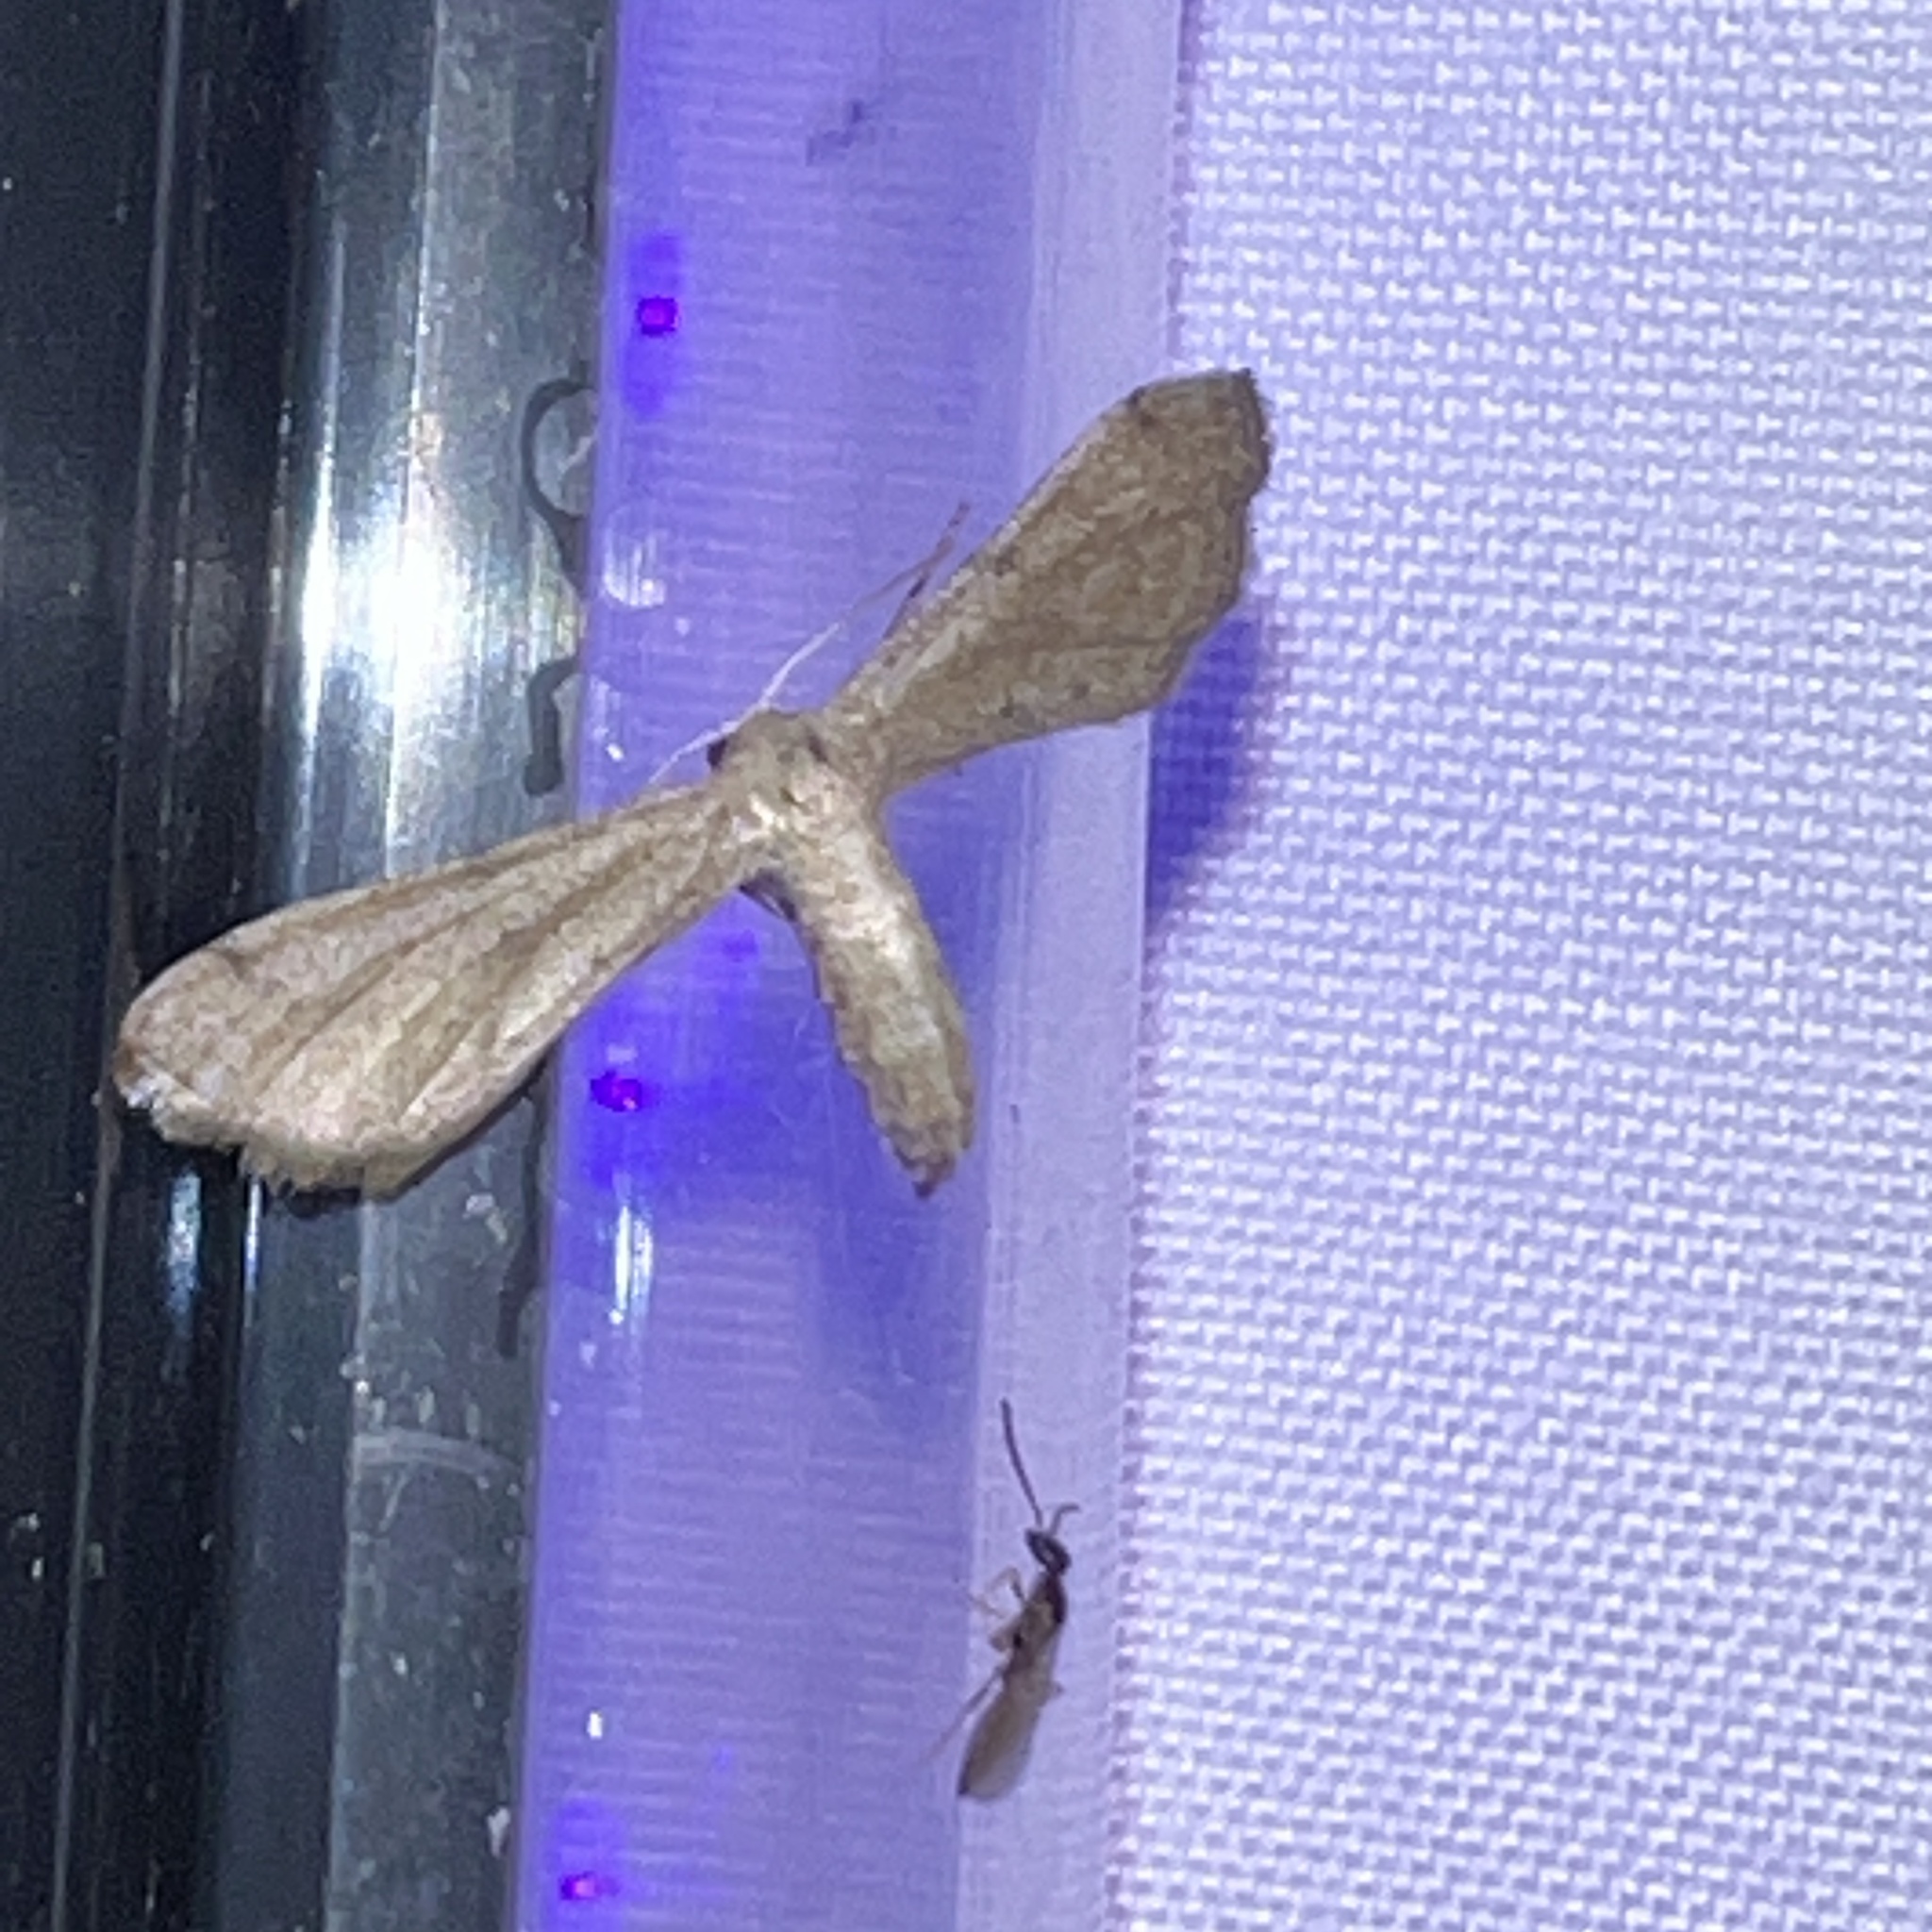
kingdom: Animalia
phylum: Arthropoda
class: Insecta
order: Lepidoptera
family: Geometridae
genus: Tornos
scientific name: Tornos scolopacinaria
